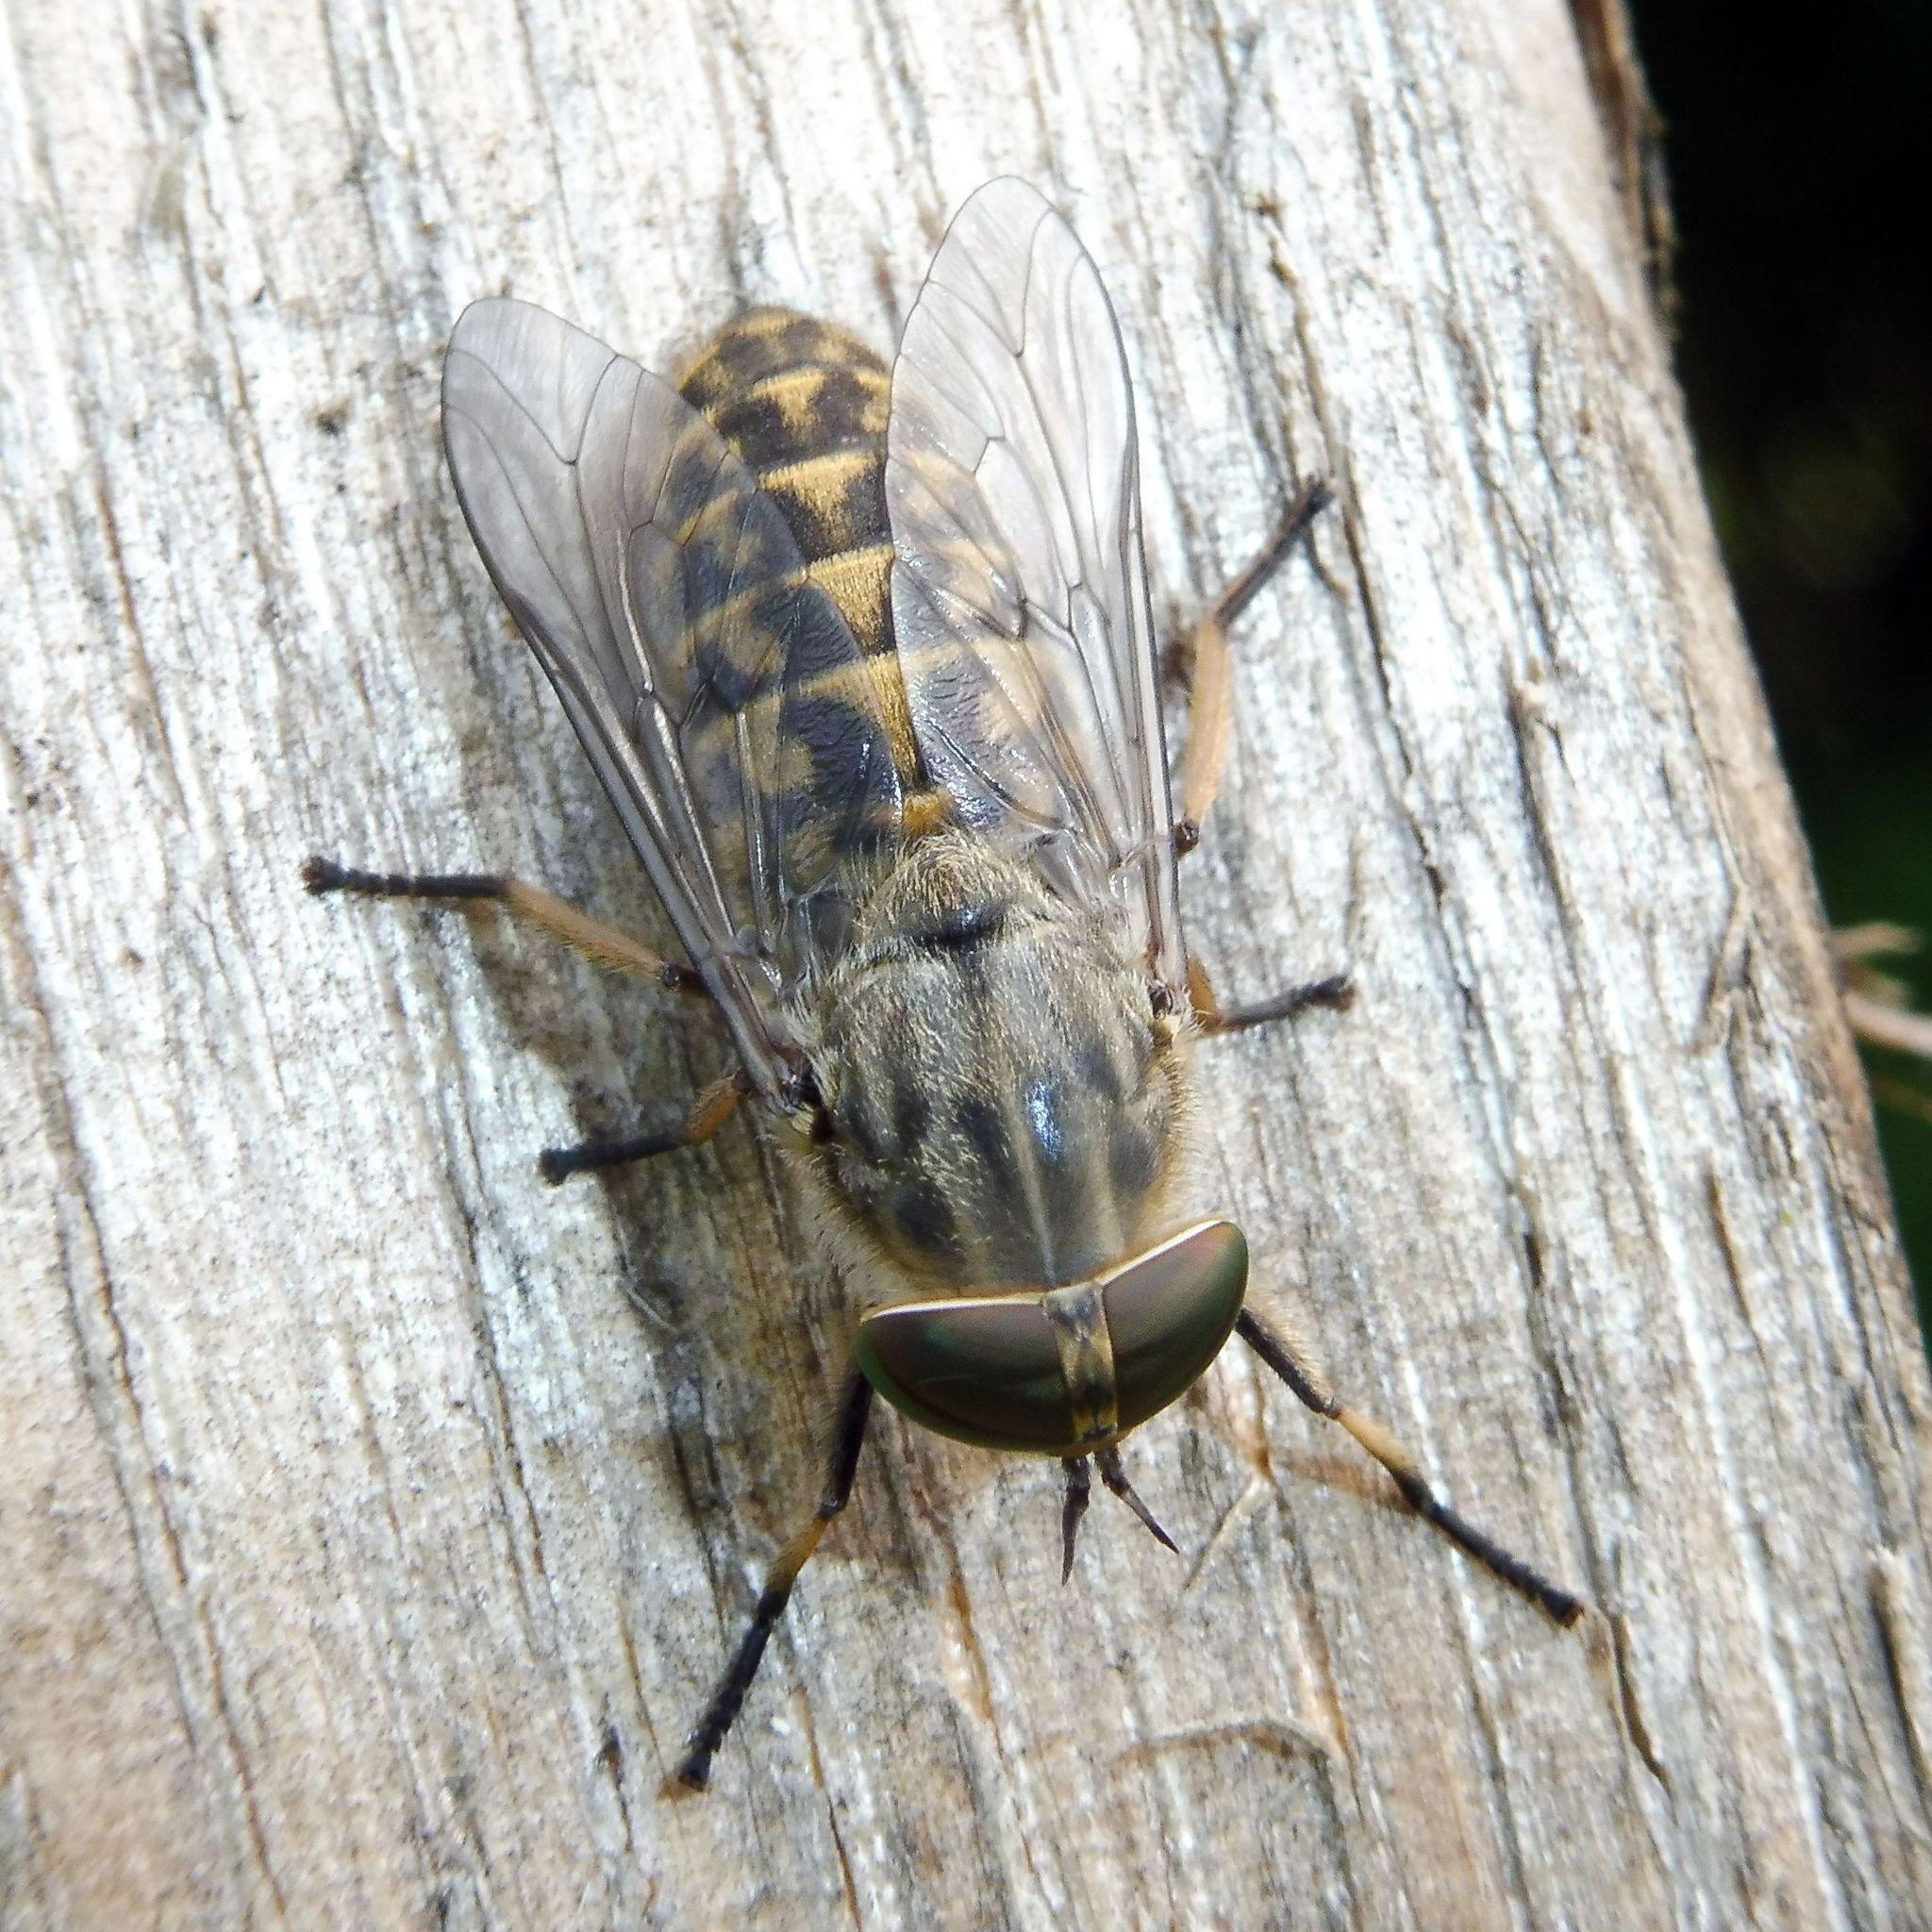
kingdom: Animalia
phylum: Arthropoda
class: Insecta
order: Diptera
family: Tabanidae
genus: Tabanus
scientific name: Tabanus bromius
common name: Band-eyed brown horsefly
